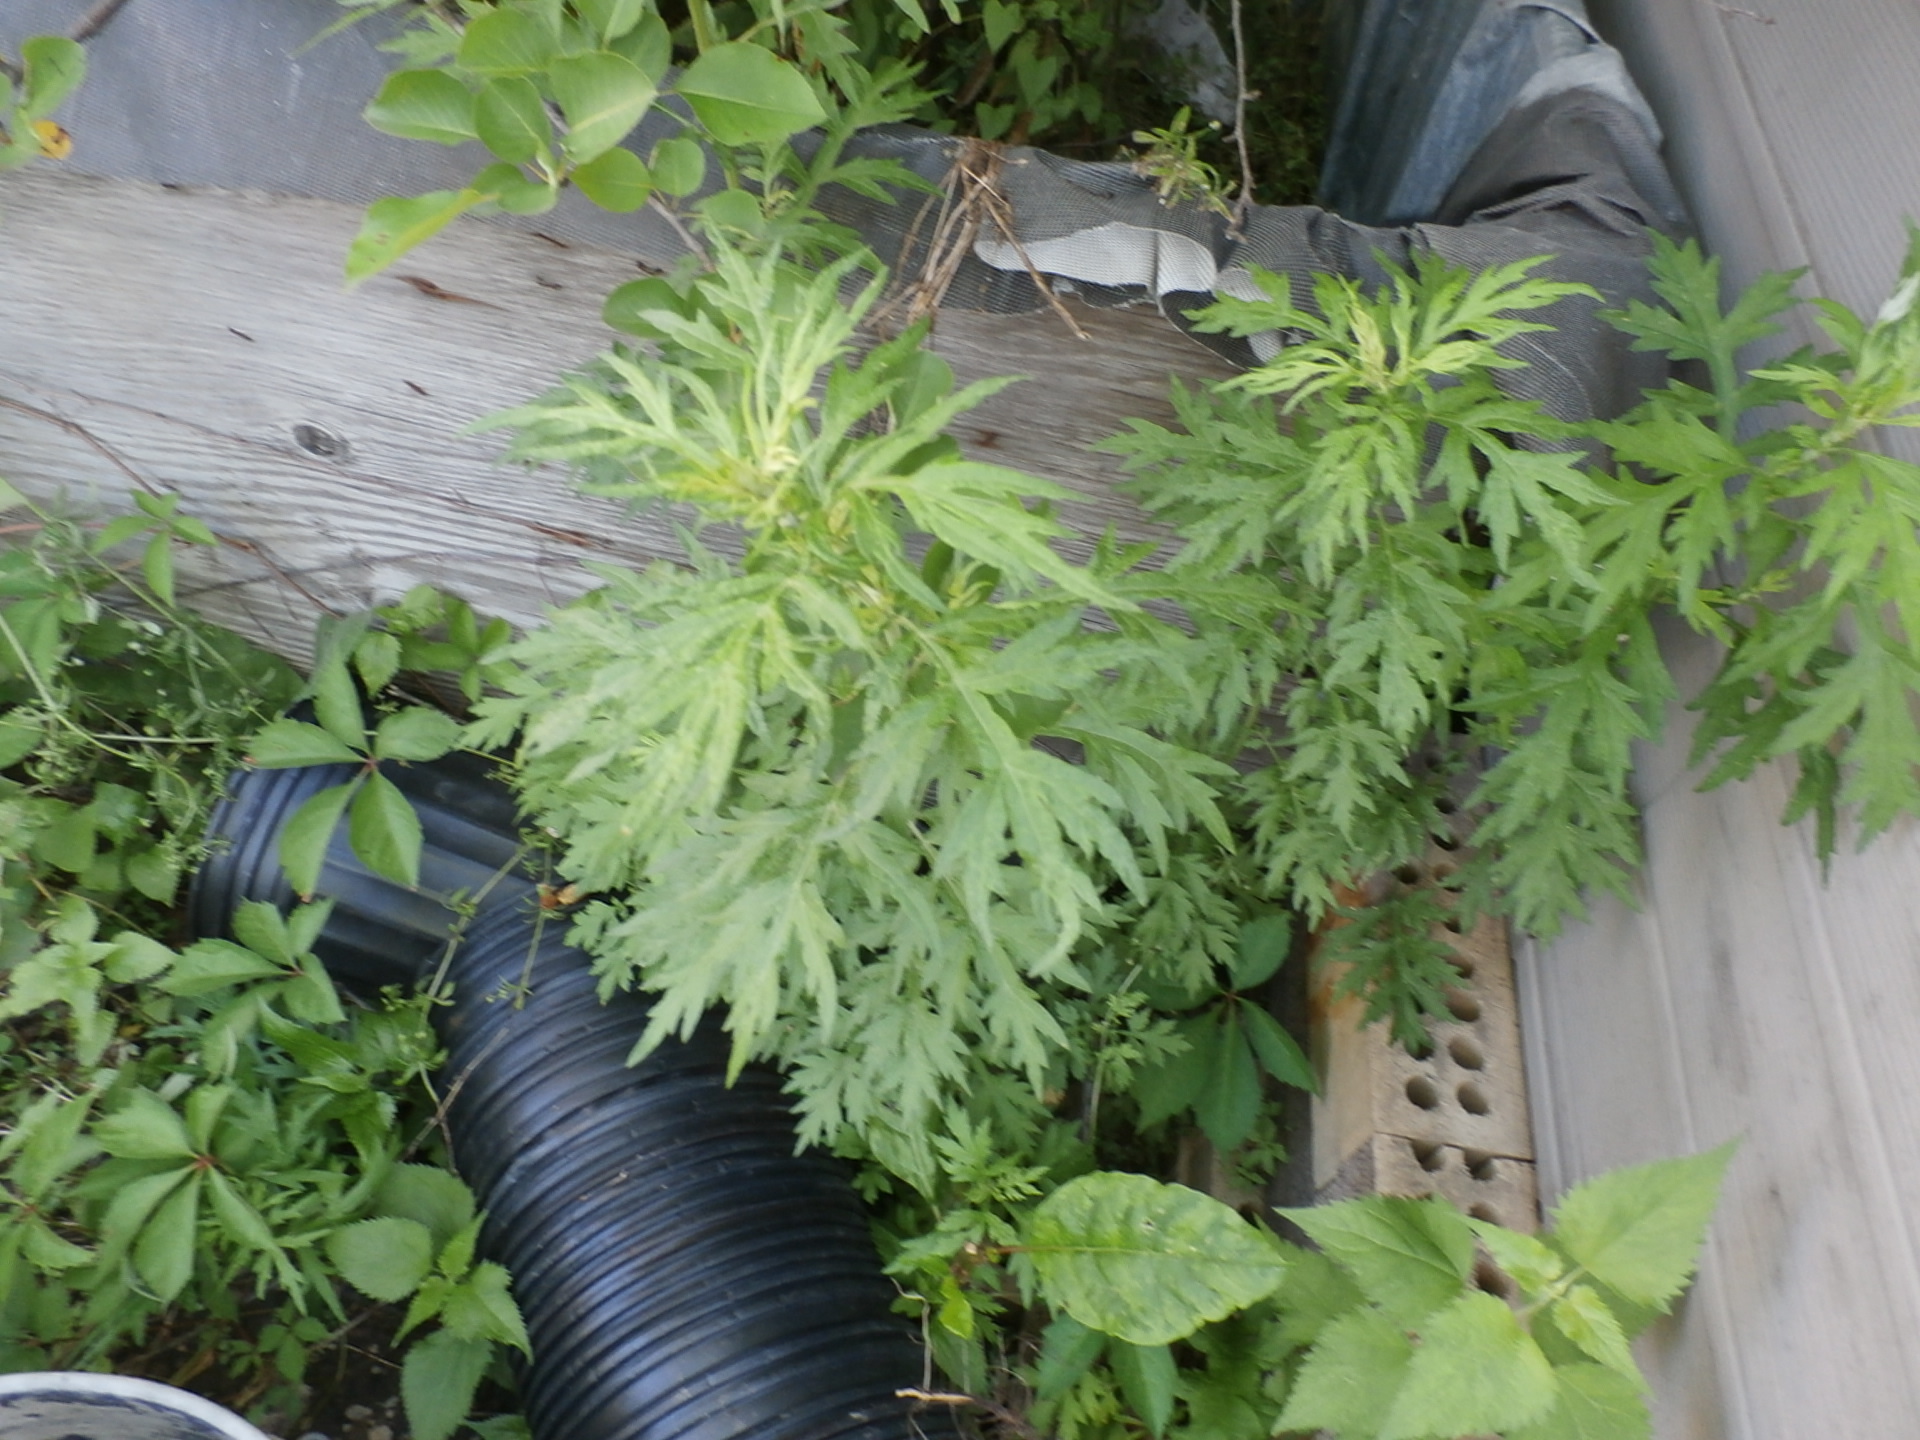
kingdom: Plantae
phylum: Tracheophyta
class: Magnoliopsida
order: Asterales
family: Asteraceae
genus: Artemisia
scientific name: Artemisia vulgaris
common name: Mugwort
